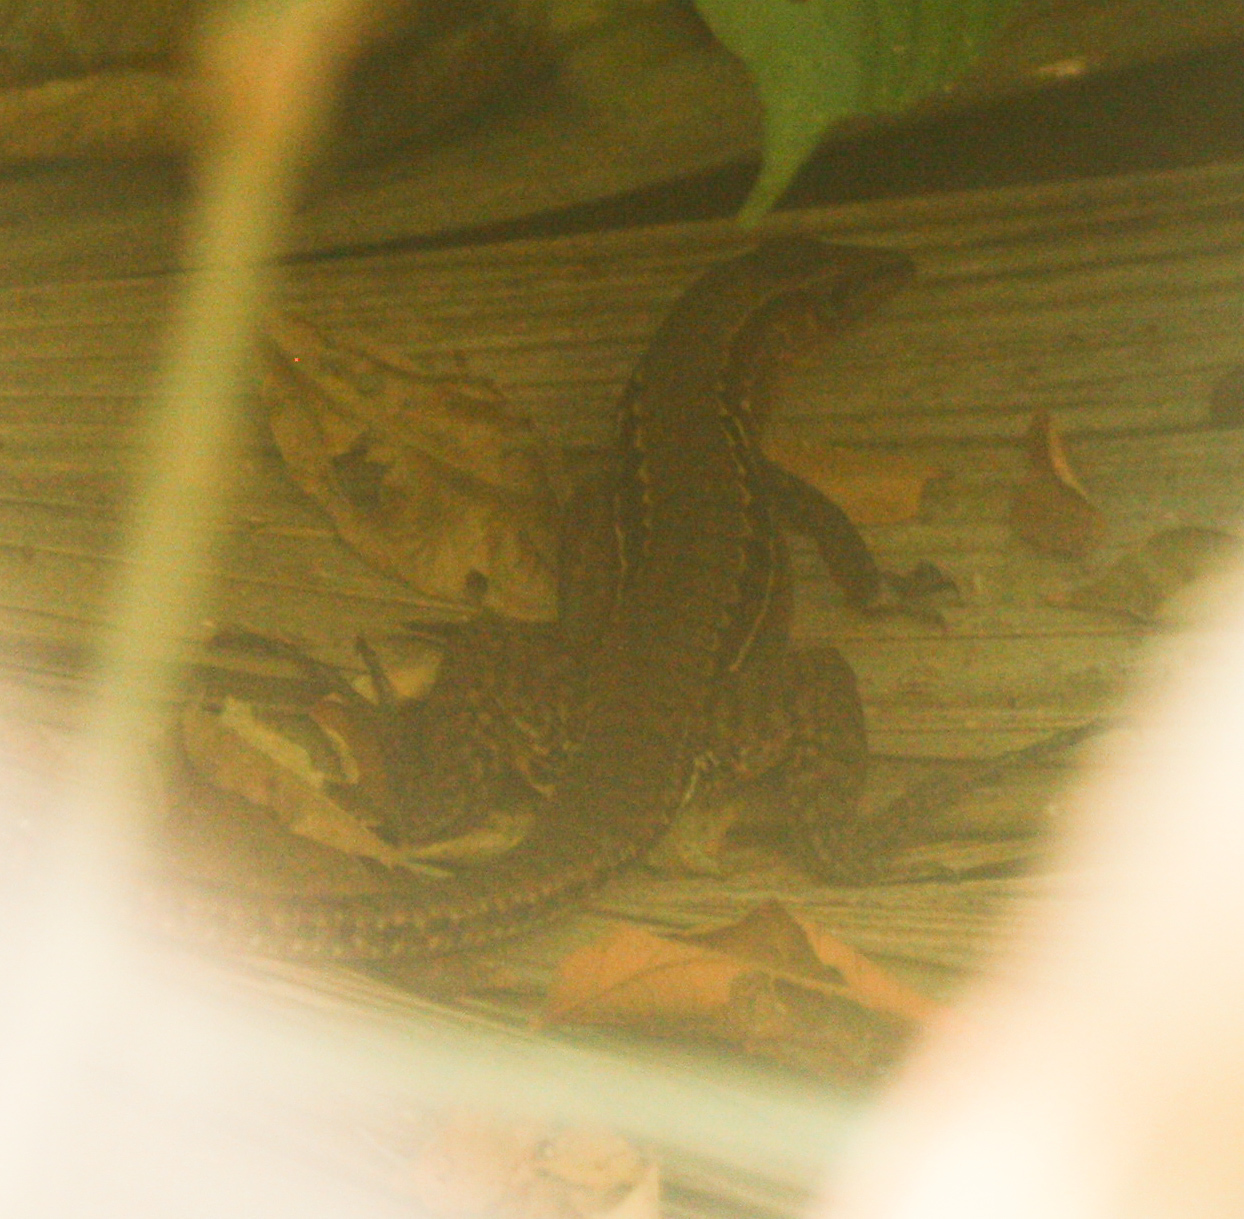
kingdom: Animalia
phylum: Chordata
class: Squamata
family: Teiidae
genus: Holcosus
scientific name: Holcosus leptophrys
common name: Delicate ameiva
